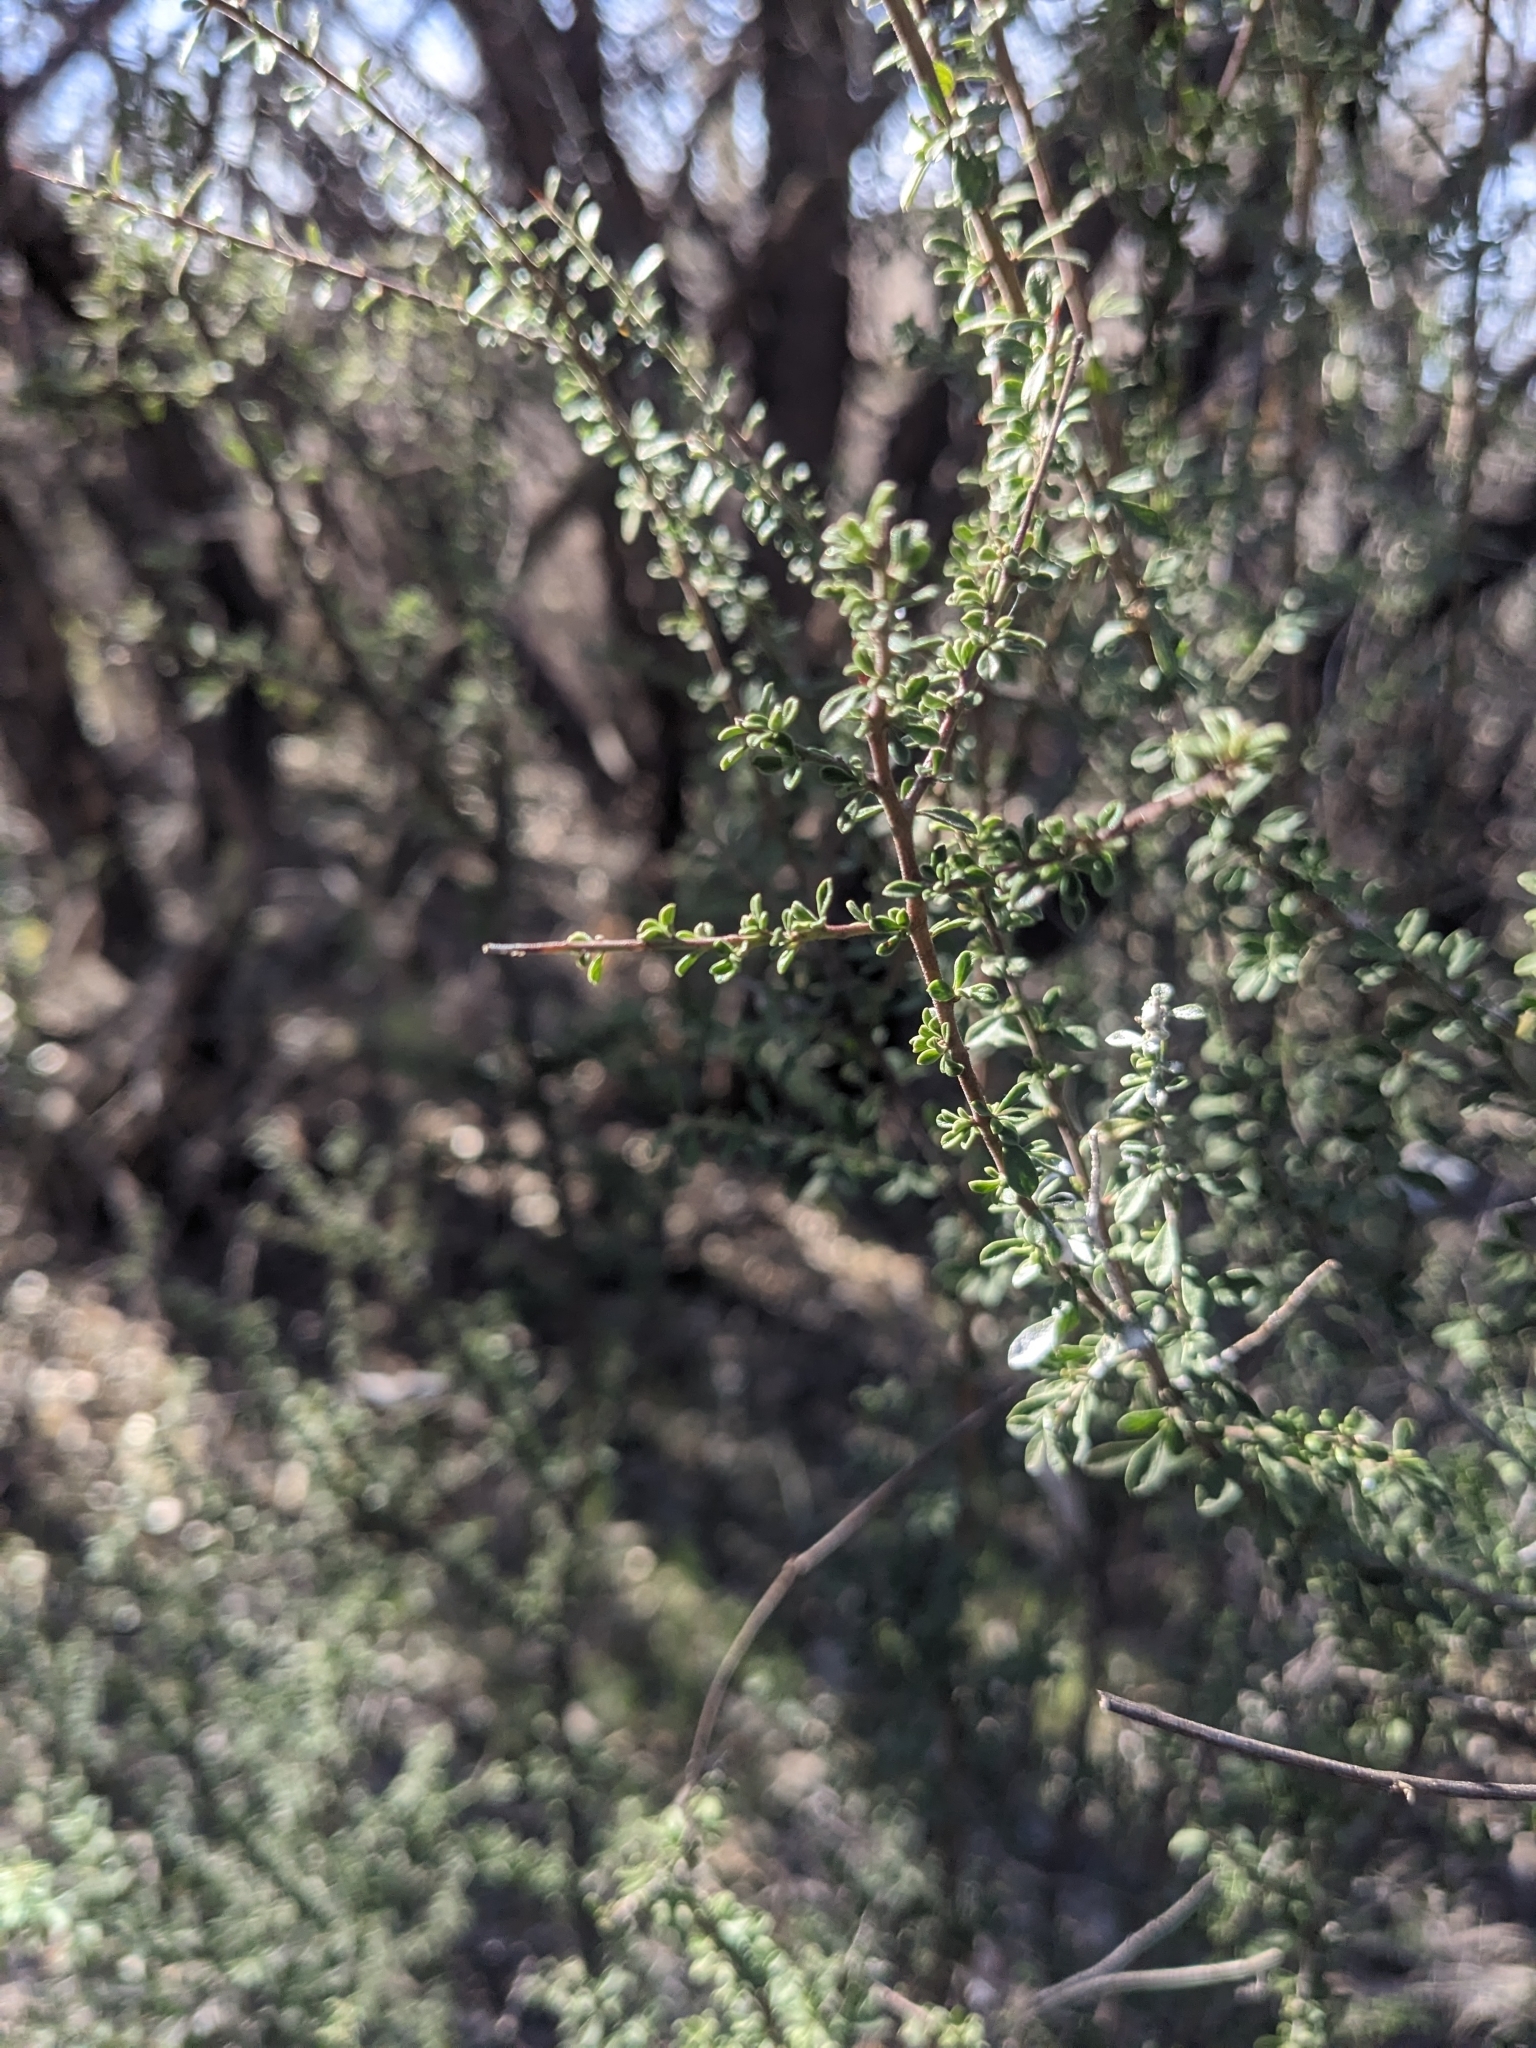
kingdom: Plantae
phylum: Tracheophyta
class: Magnoliopsida
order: Rosales
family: Rhamnaceae
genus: Condalia
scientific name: Condalia warnockii
